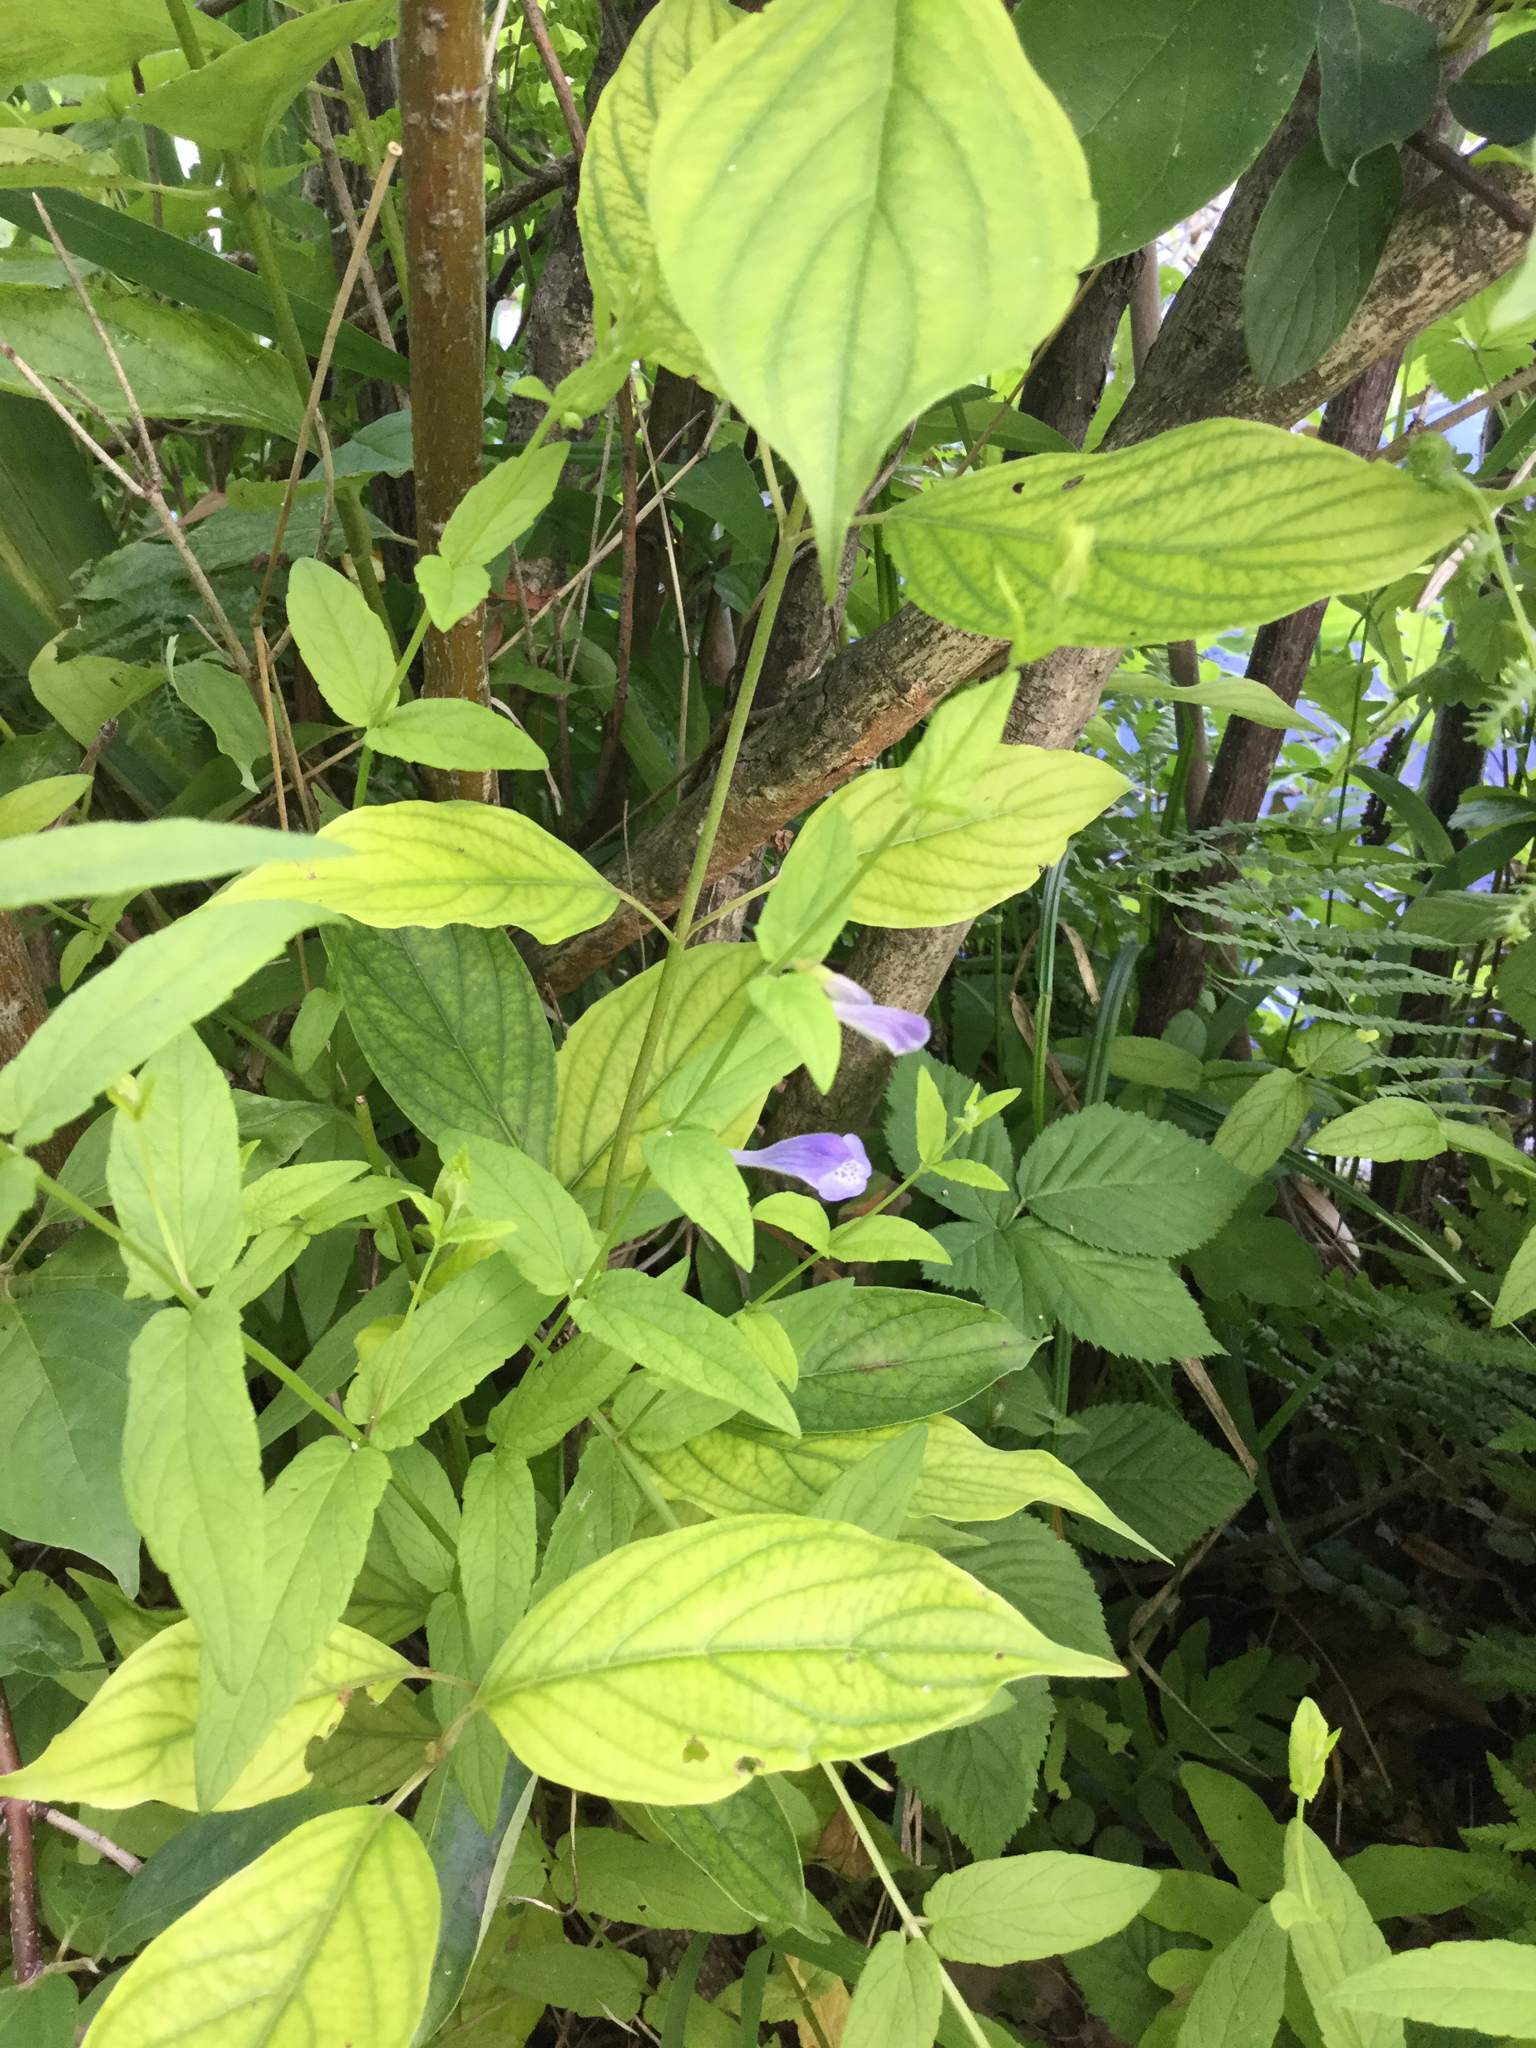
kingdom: Plantae
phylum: Tracheophyta
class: Magnoliopsida
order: Lamiales
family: Lamiaceae
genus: Scutellaria
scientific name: Scutellaria galericulata
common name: Skullcap
